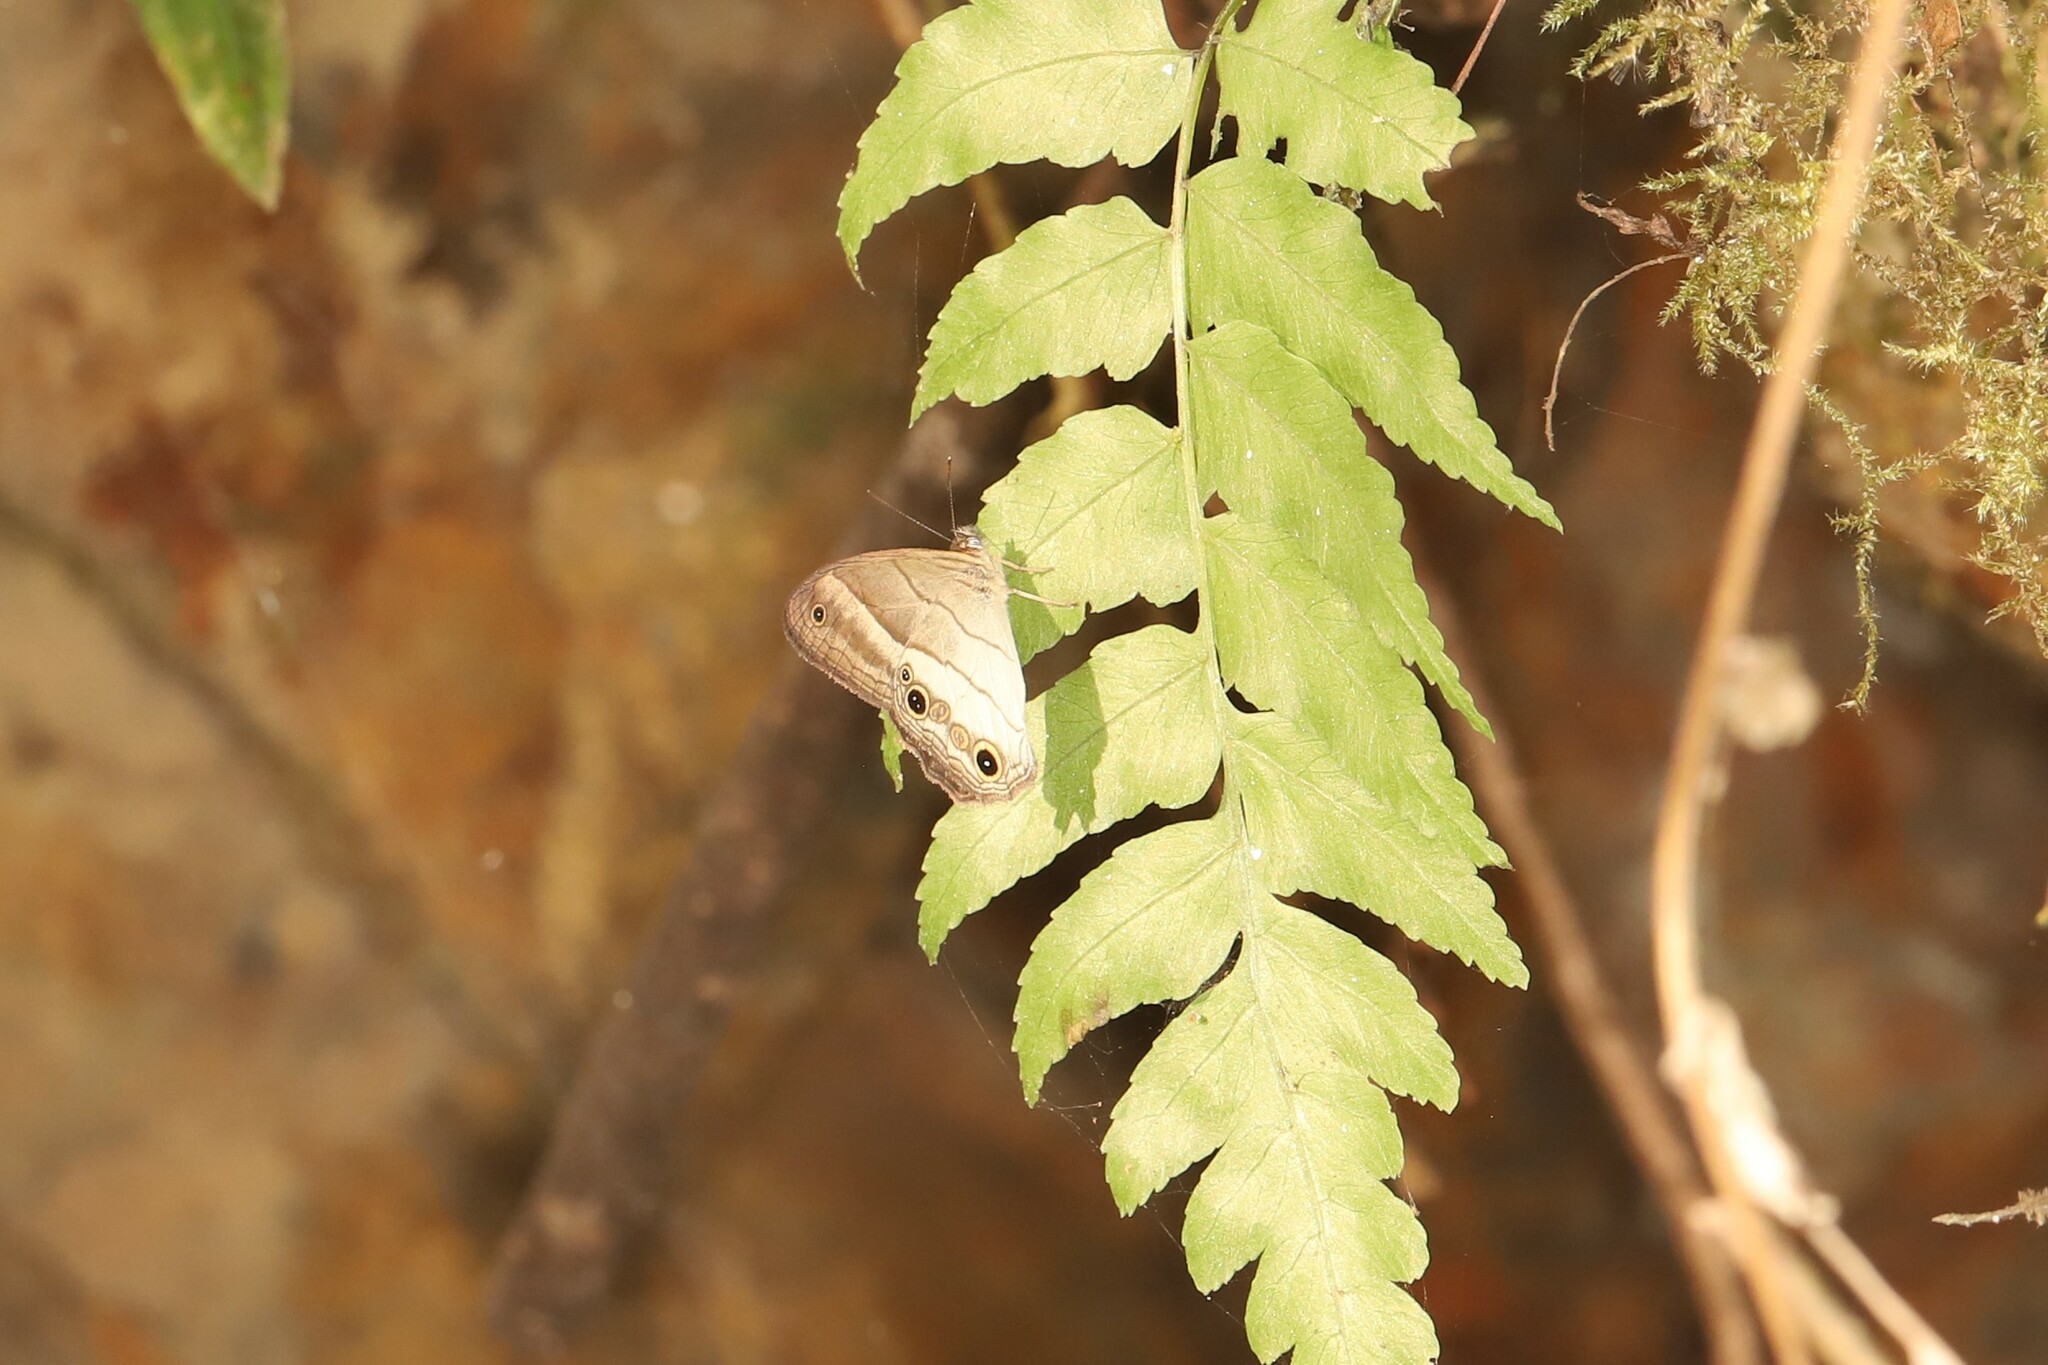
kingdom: Animalia
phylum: Arthropoda
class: Insecta
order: Lepidoptera
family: Nymphalidae
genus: Euptychoides
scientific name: Euptychoides saturnus
